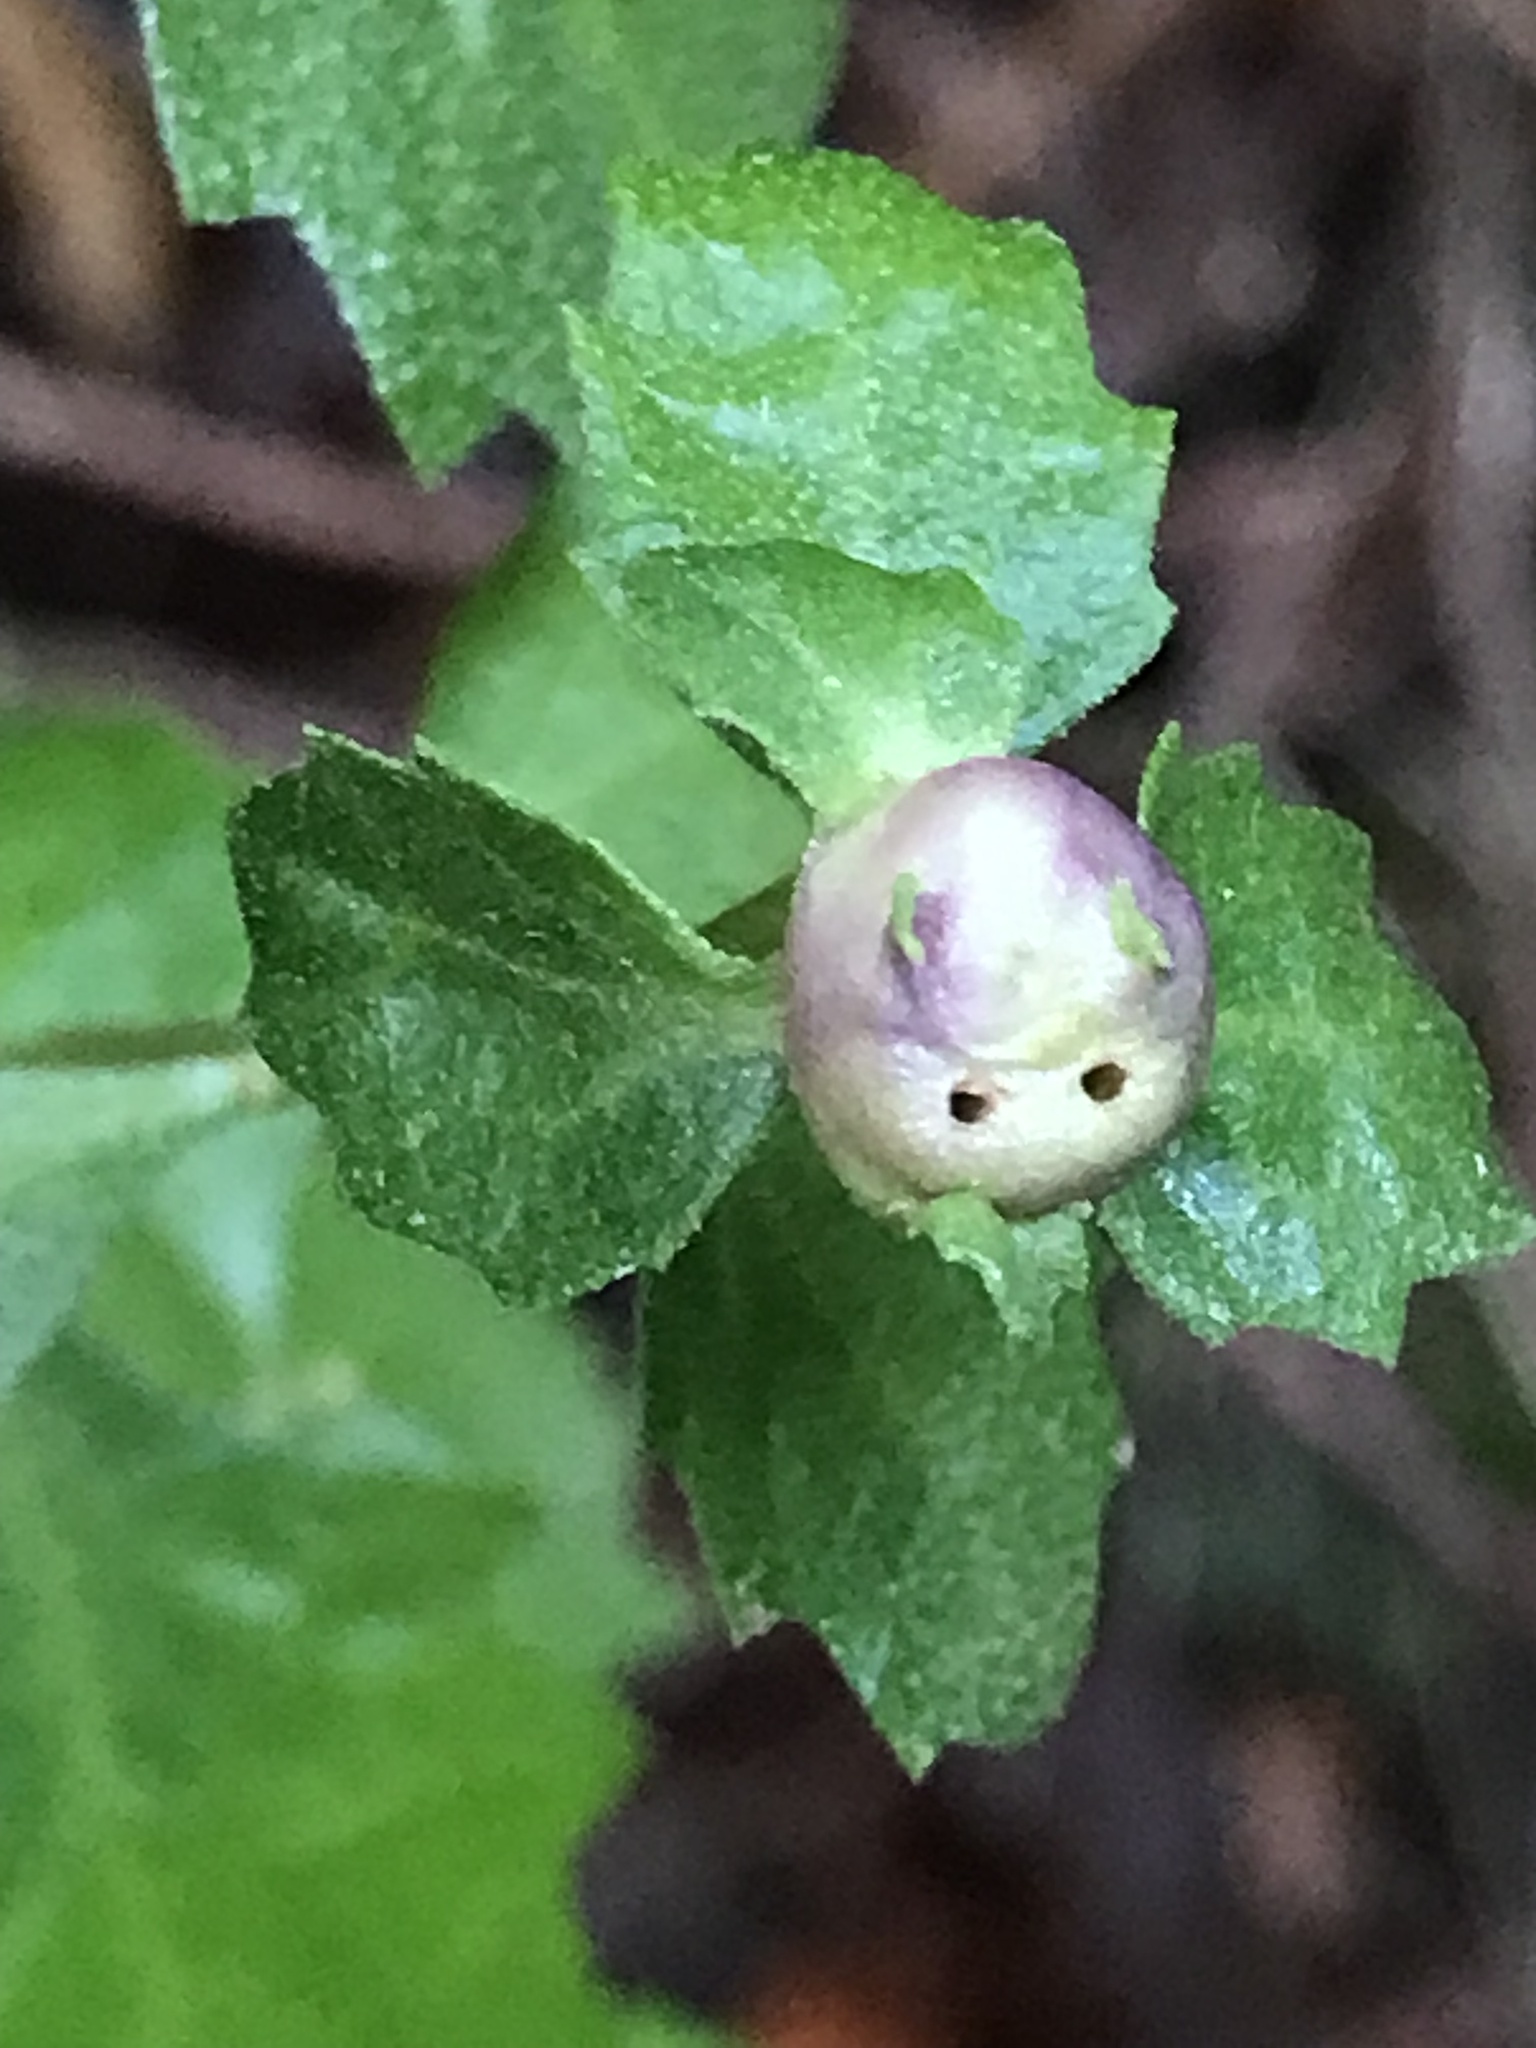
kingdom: Animalia
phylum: Arthropoda
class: Insecta
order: Diptera
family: Cecidomyiidae
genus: Rhopalomyia
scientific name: Rhopalomyia californica
